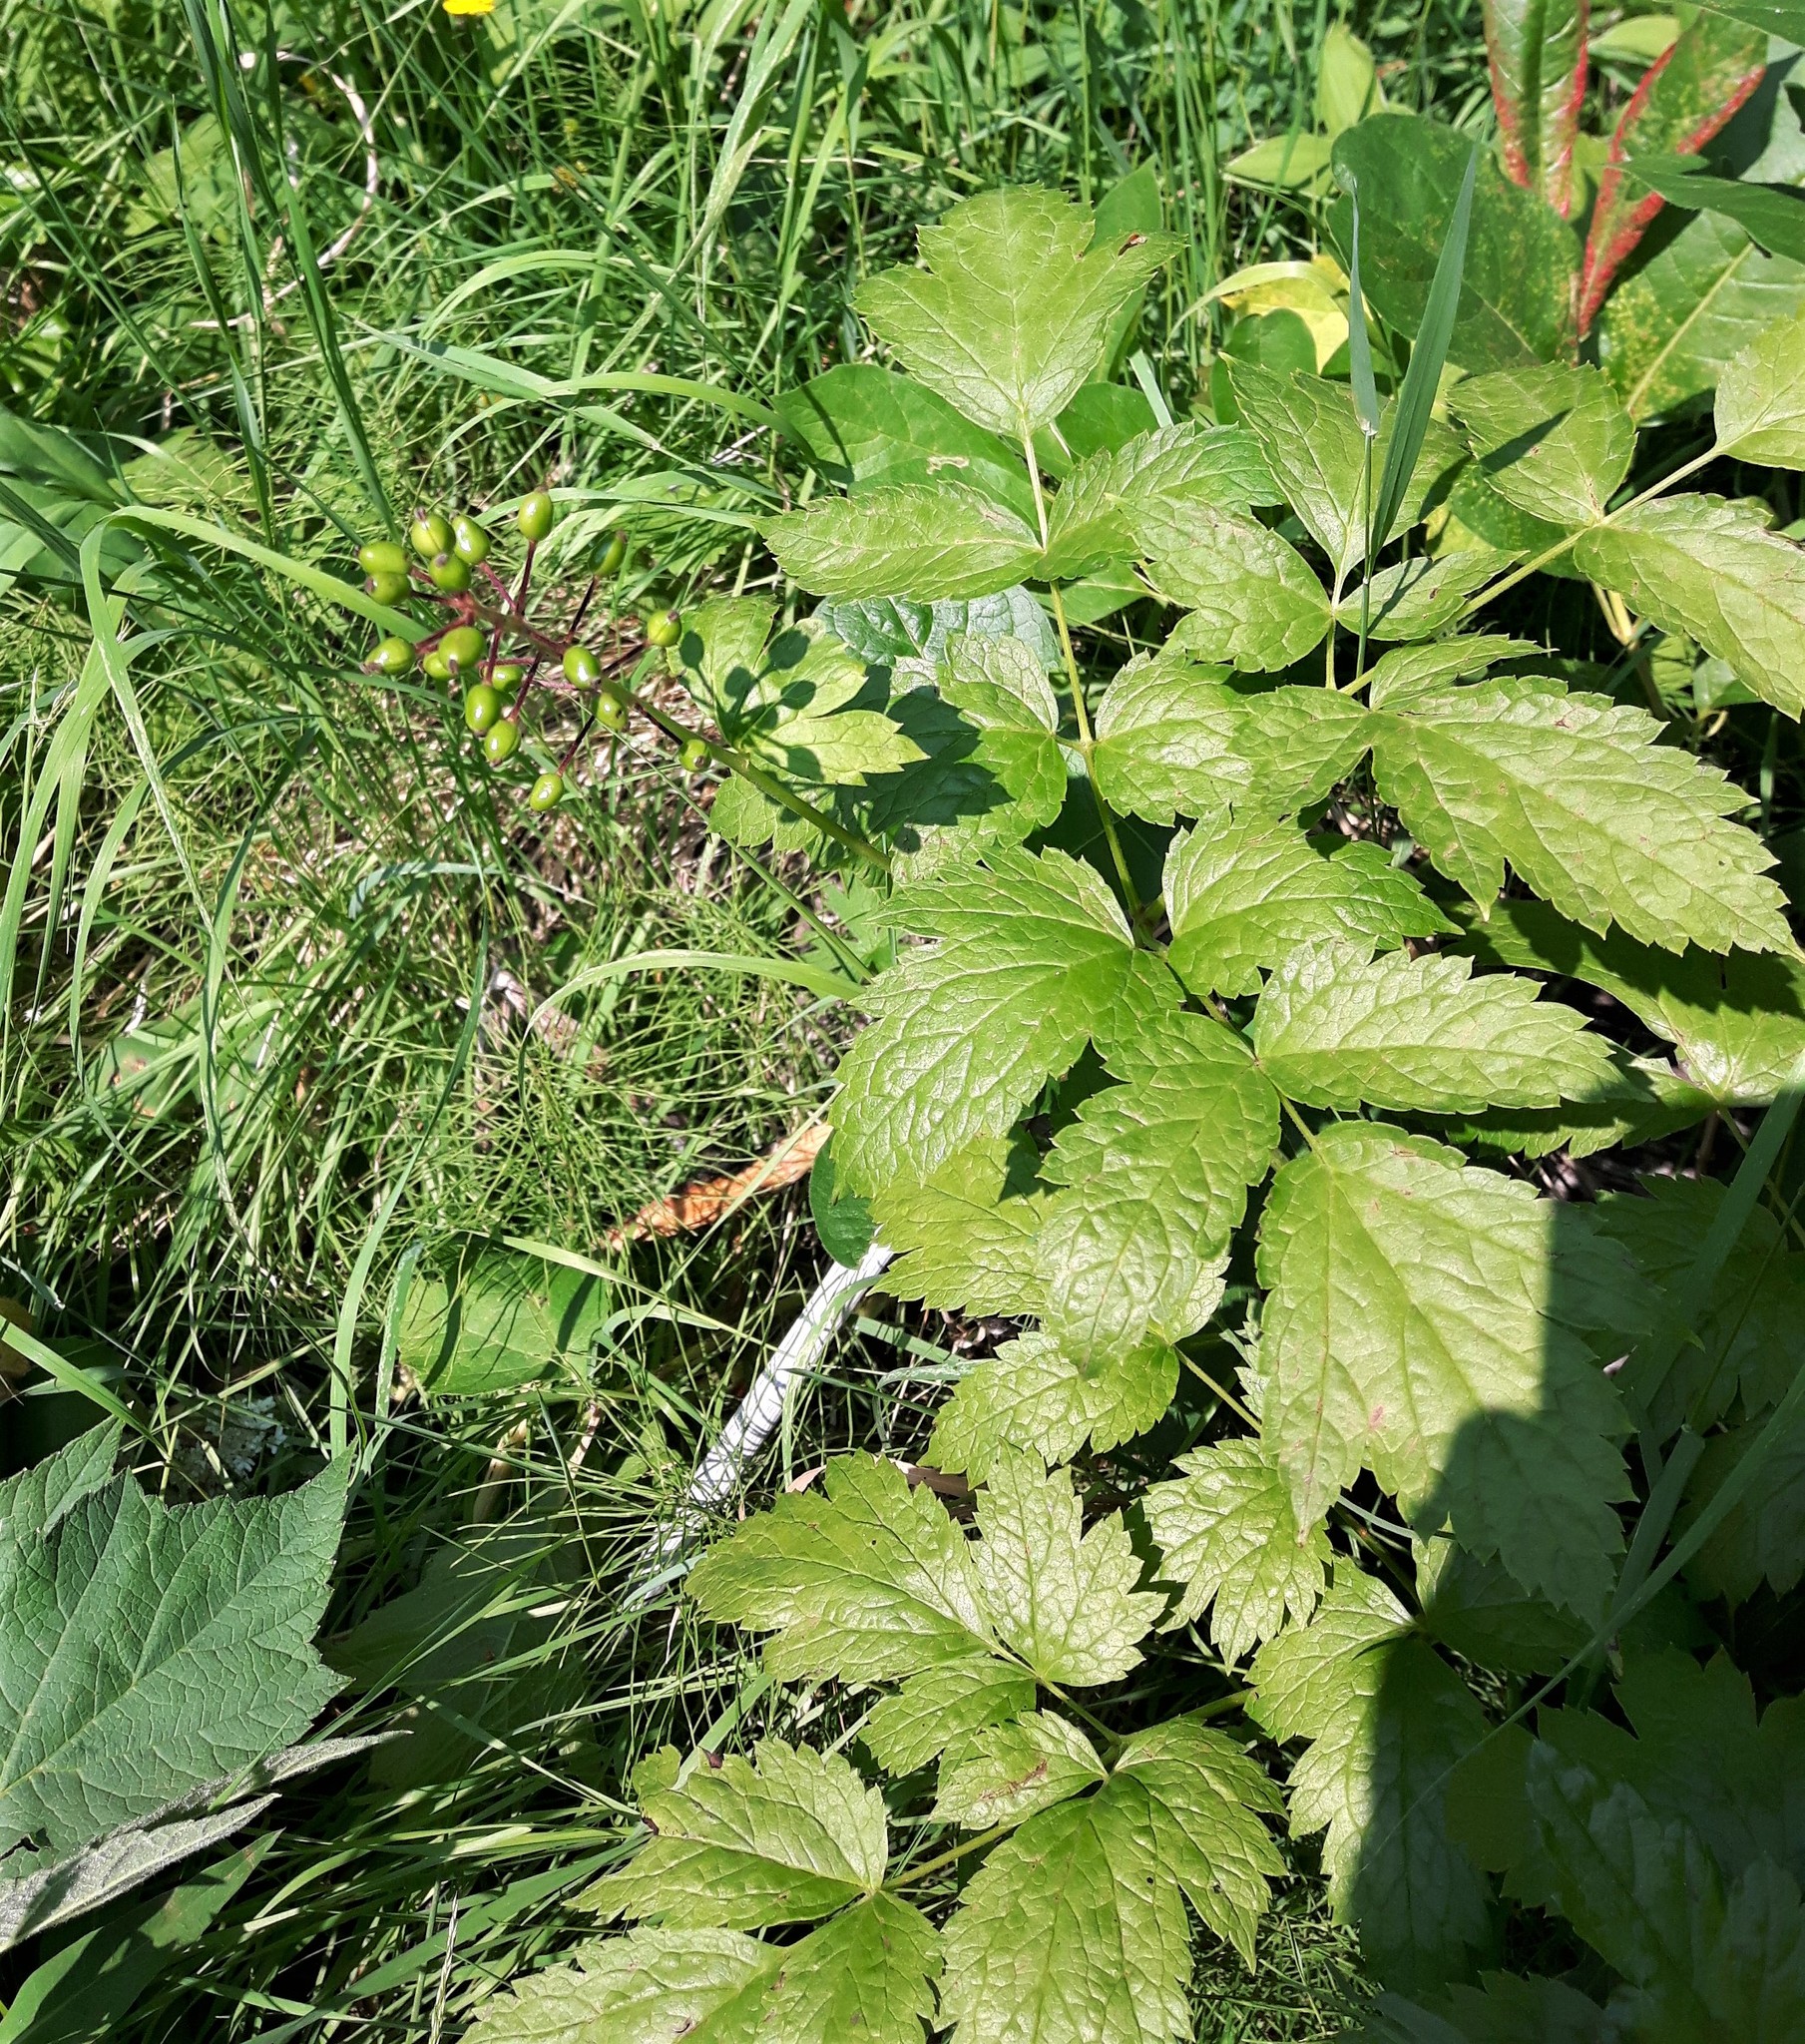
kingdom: Plantae
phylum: Tracheophyta
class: Magnoliopsida
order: Ranunculales
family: Ranunculaceae
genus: Actaea
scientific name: Actaea rubra
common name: Red baneberry
